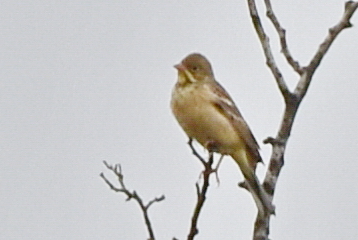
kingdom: Animalia
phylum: Chordata
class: Aves
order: Passeriformes
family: Emberizidae
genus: Emberiza
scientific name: Emberiza hortulana
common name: Ortolan bunting
